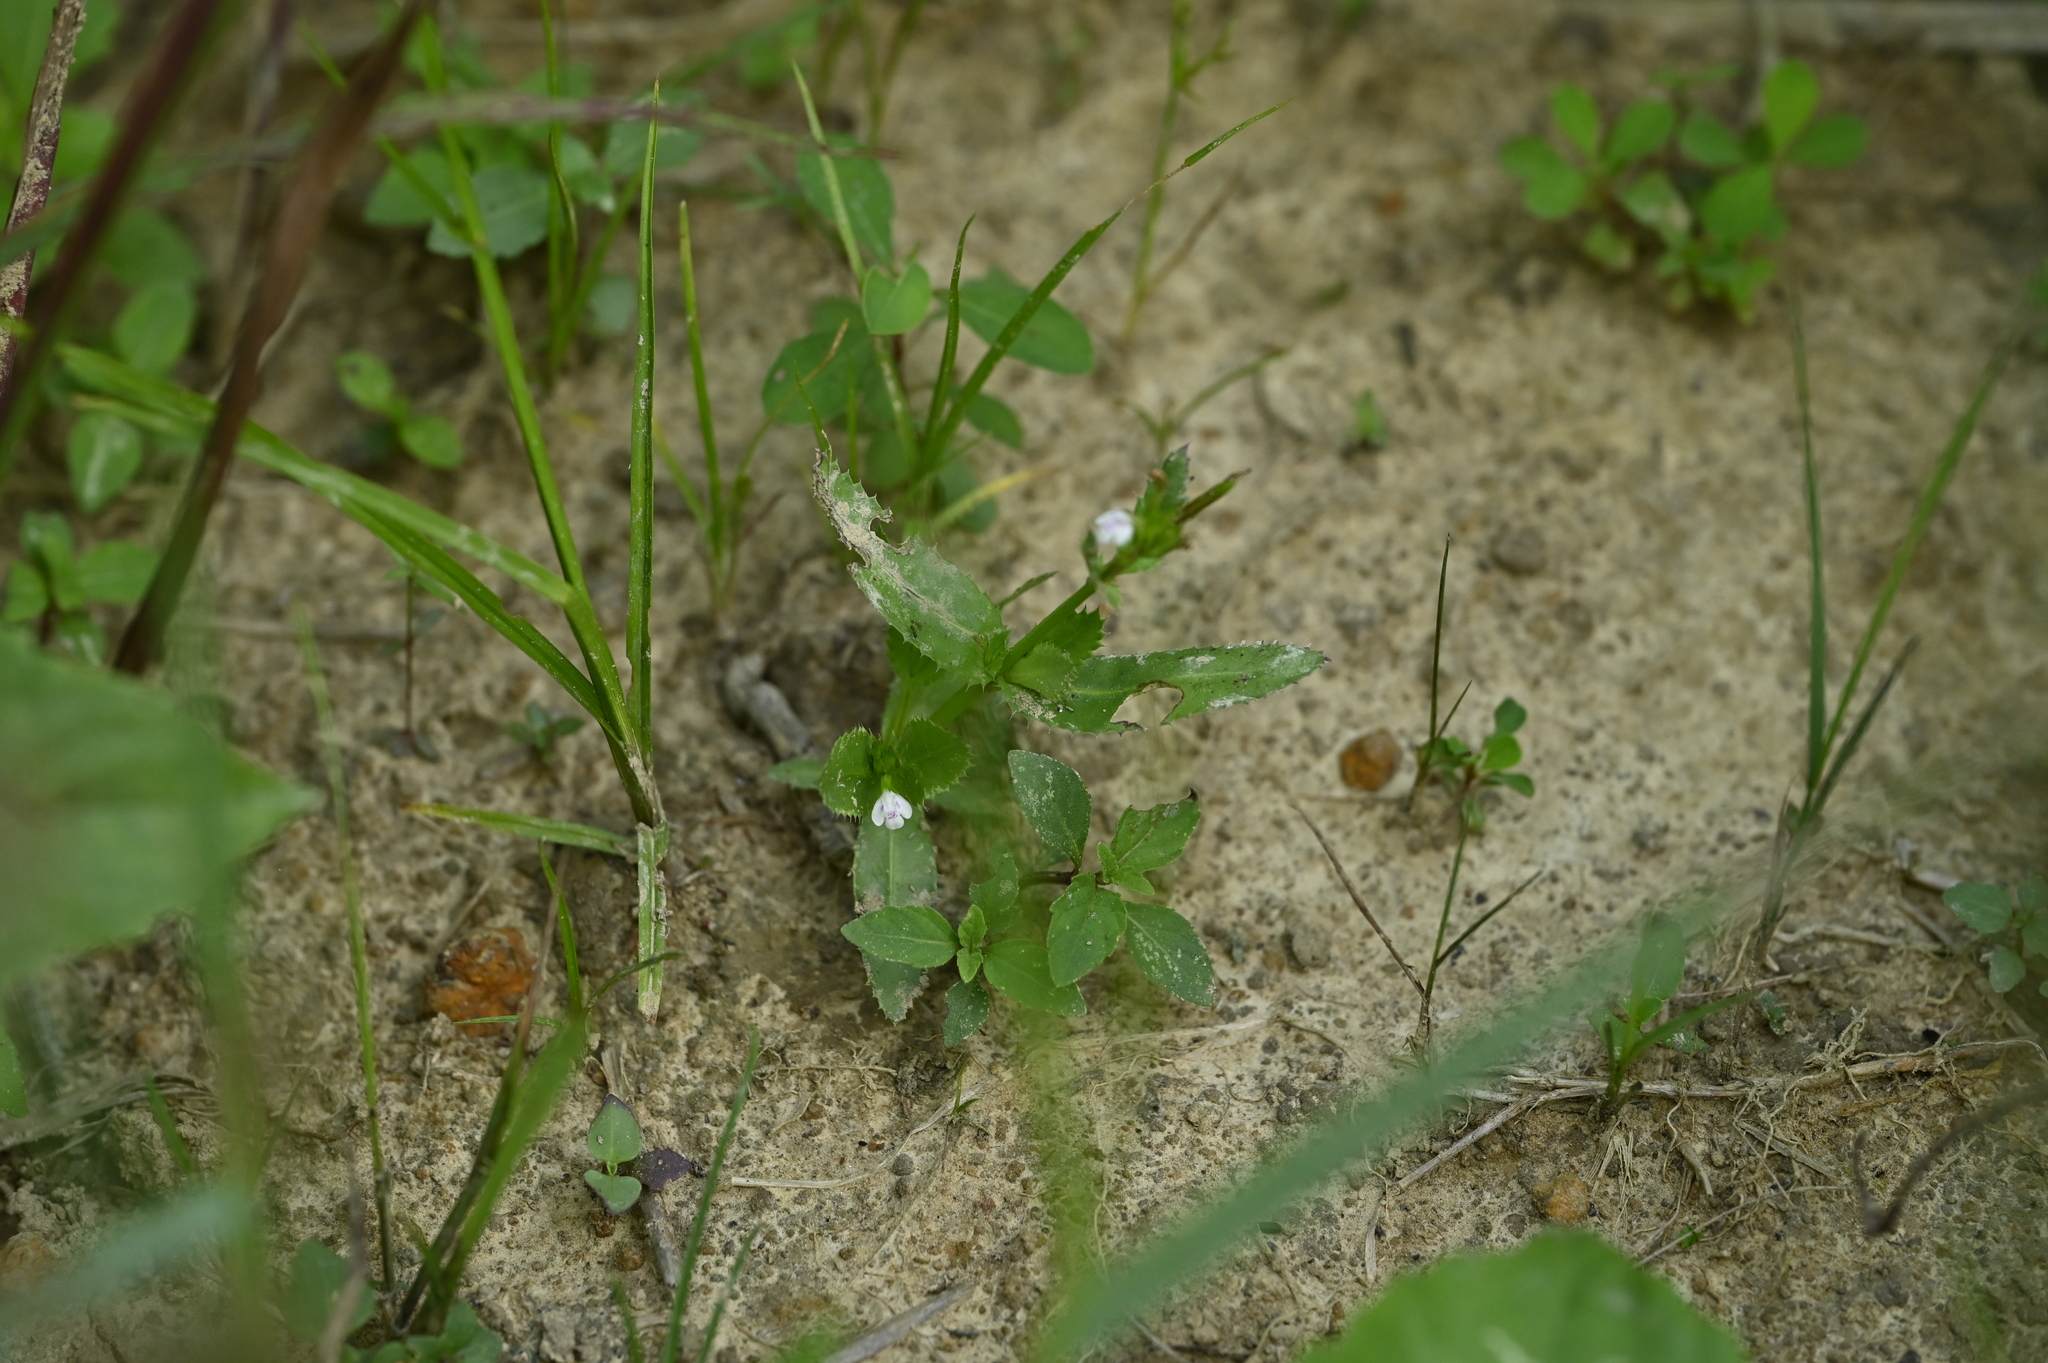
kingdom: Plantae
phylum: Tracheophyta
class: Magnoliopsida
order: Lamiales
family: Linderniaceae
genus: Bonnaya
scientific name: Bonnaya ciliata
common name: Hairy slitwort
